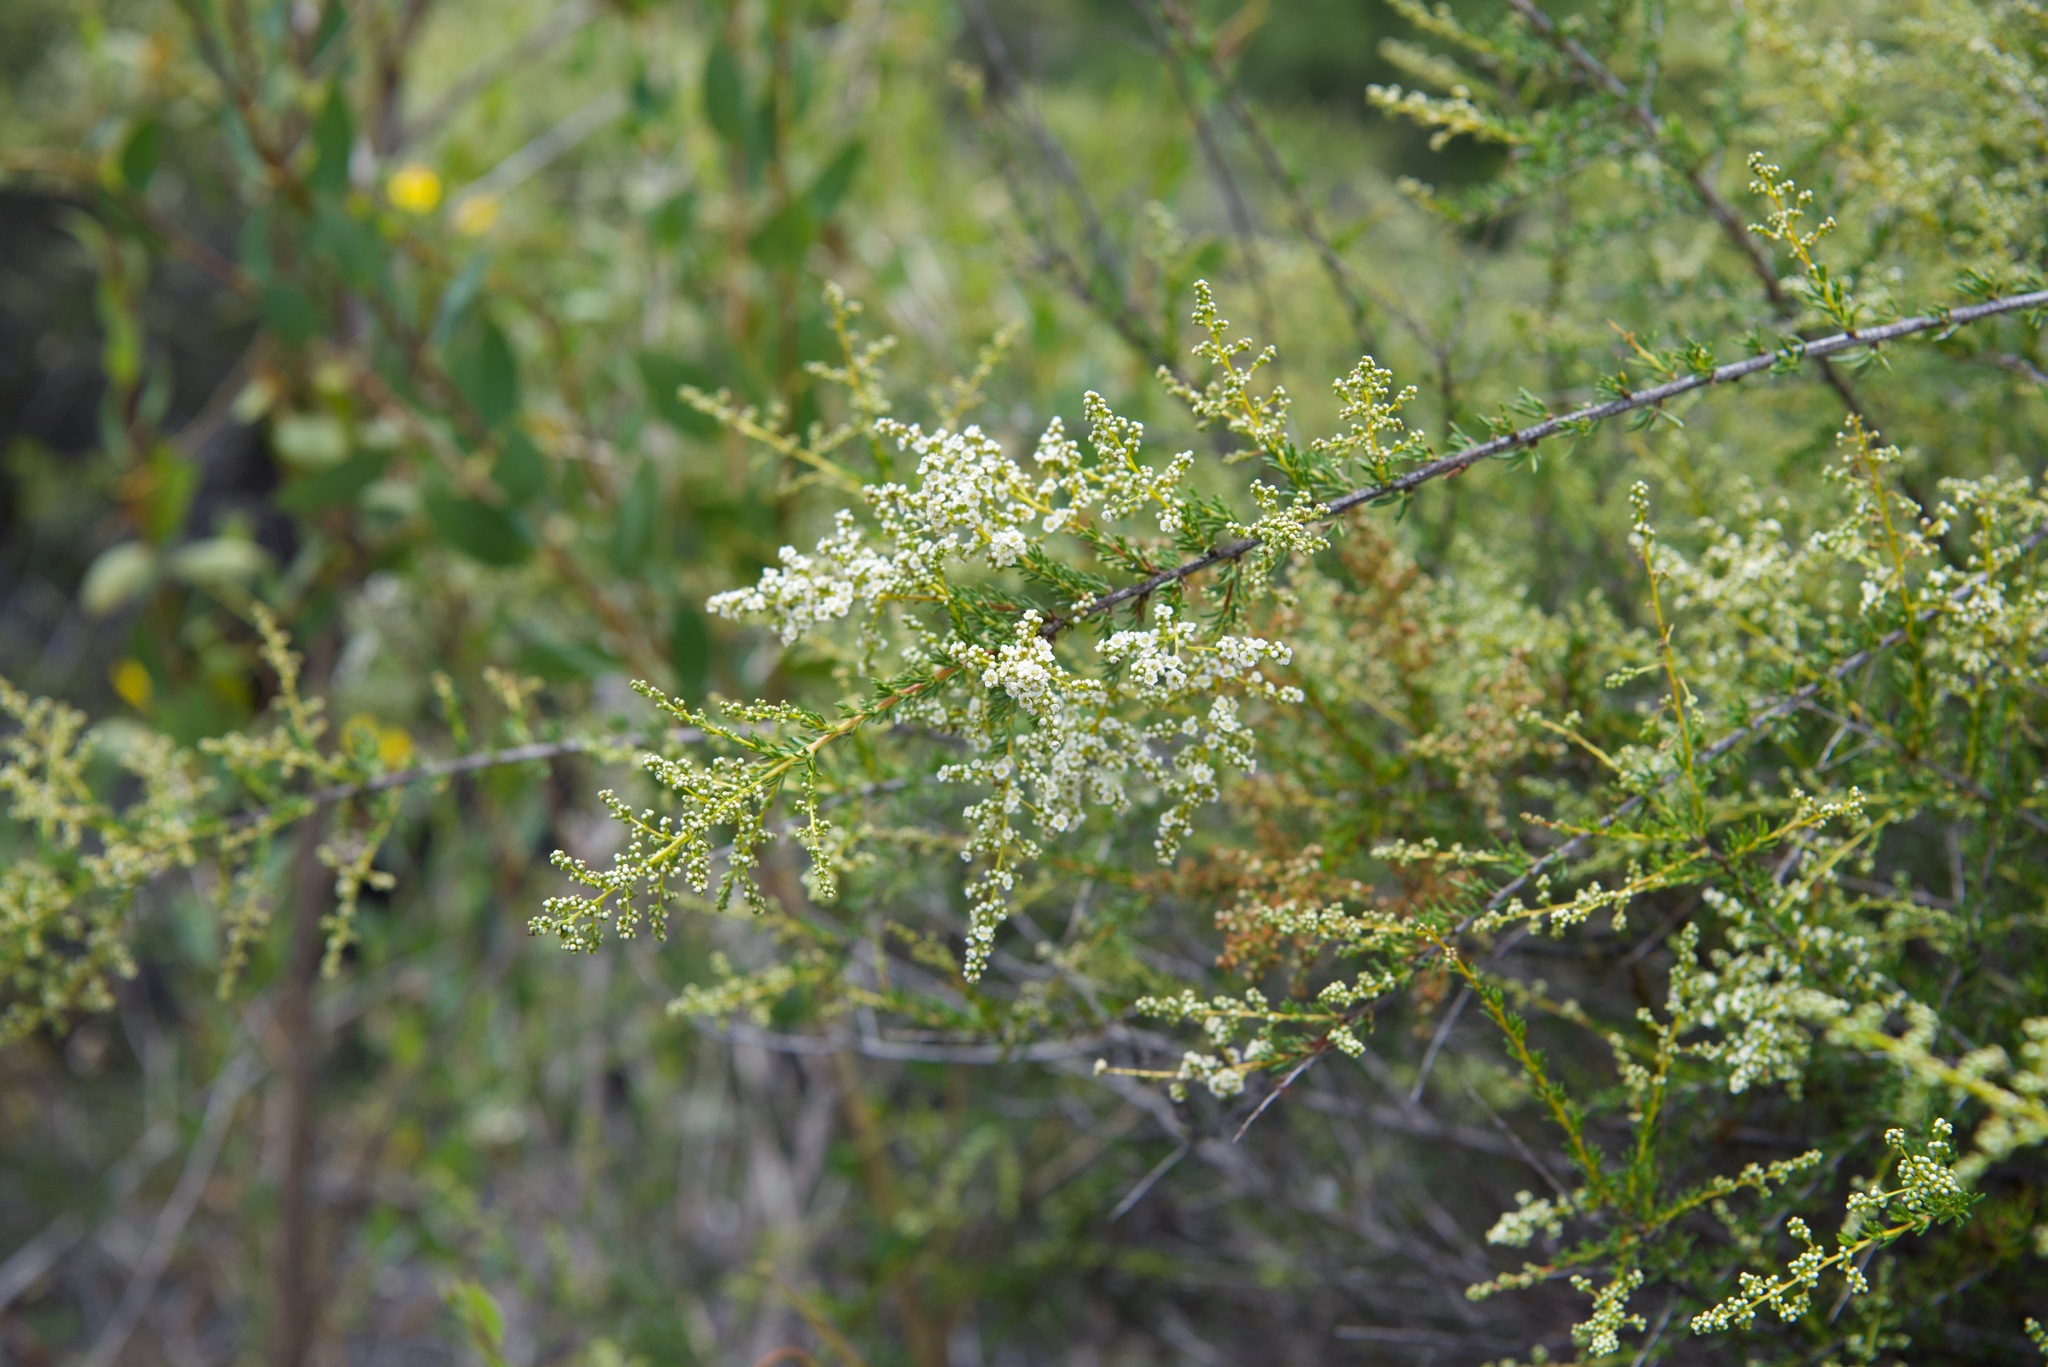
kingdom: Plantae
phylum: Tracheophyta
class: Magnoliopsida
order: Rosales
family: Rosaceae
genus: Adenostoma
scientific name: Adenostoma fasciculatum
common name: Chamise
